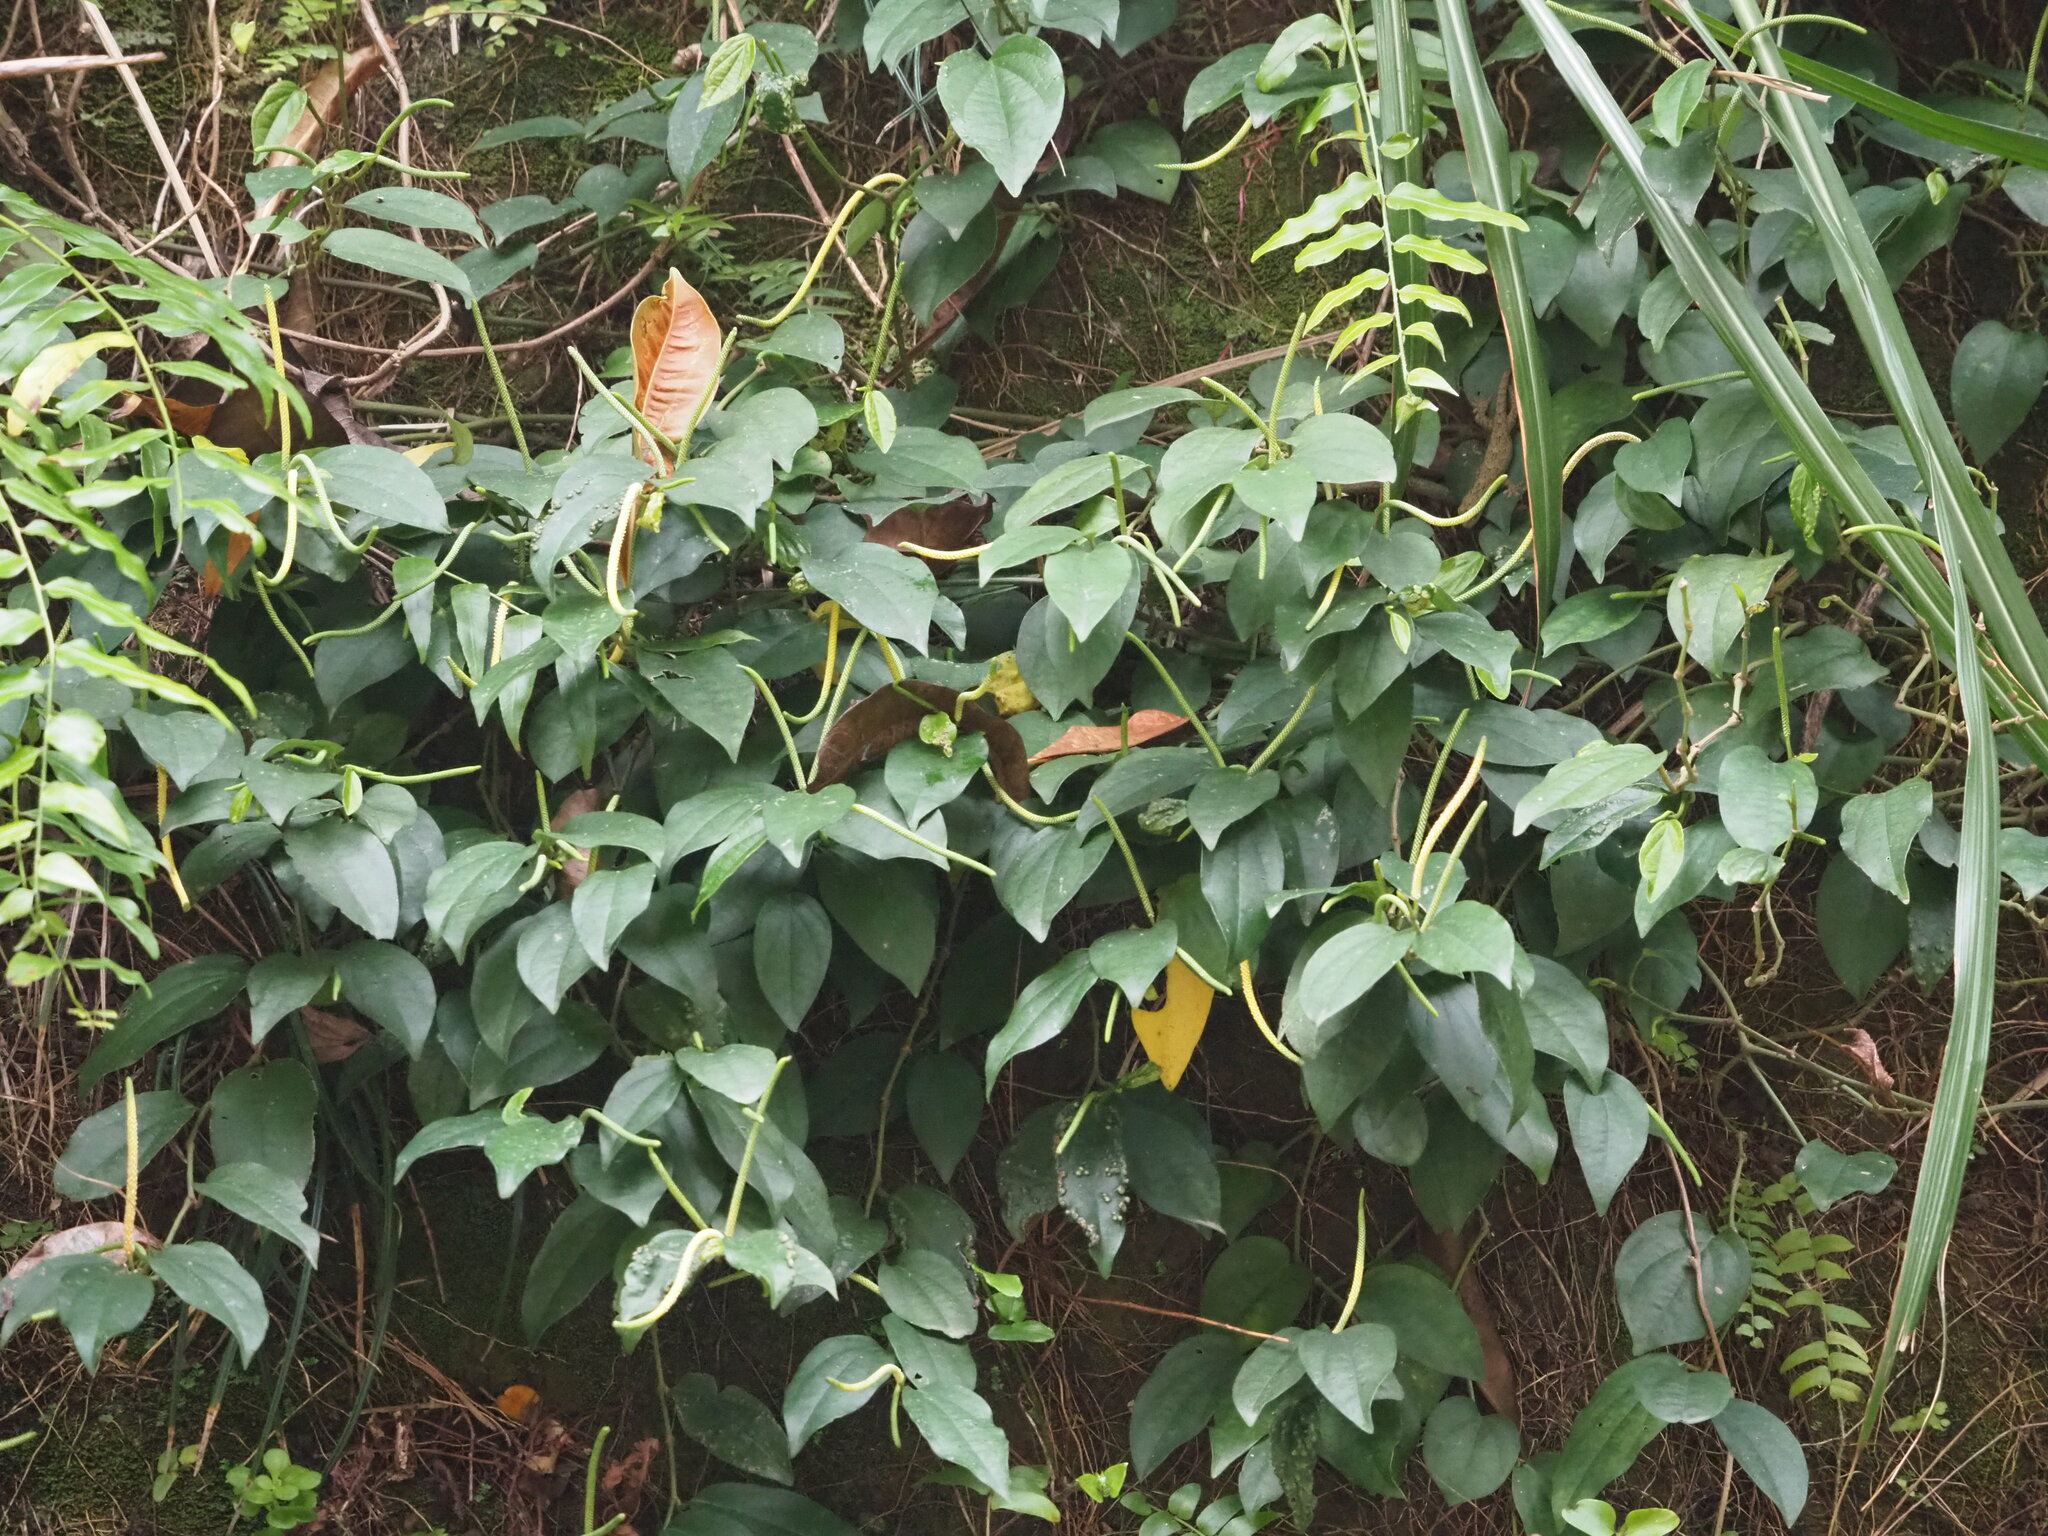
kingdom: Plantae
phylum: Tracheophyta
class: Magnoliopsida
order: Piperales
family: Piperaceae
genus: Piper
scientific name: Piper kadsura
